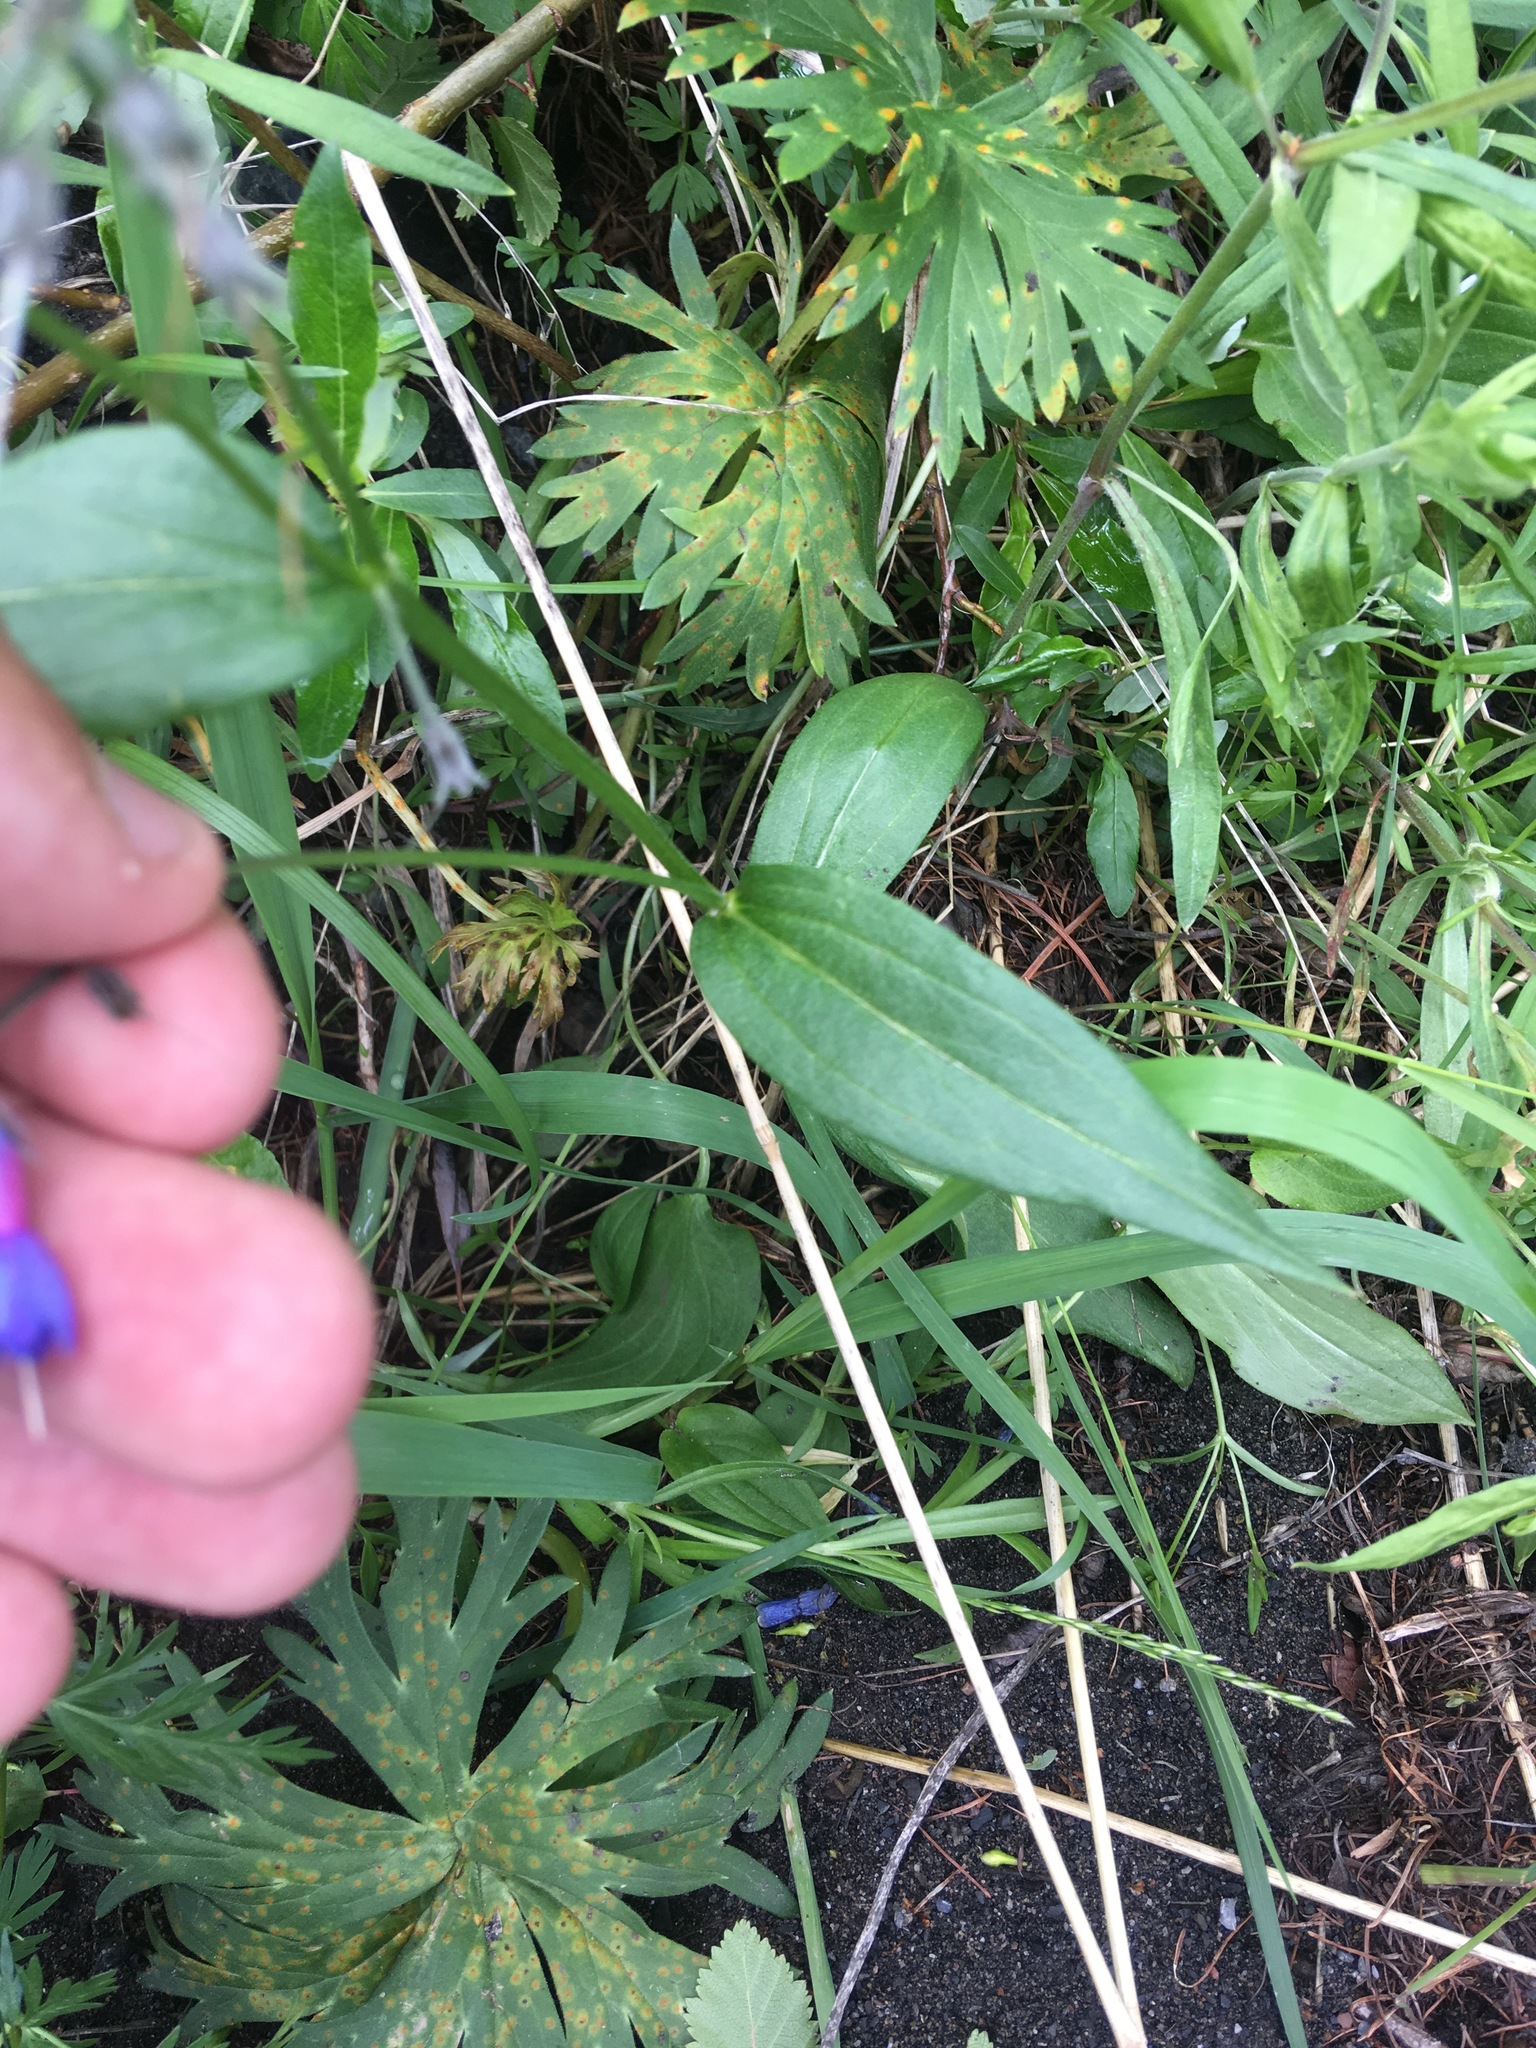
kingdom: Plantae
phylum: Tracheophyta
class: Magnoliopsida
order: Boraginales
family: Boraginaceae
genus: Mertensia
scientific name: Mertensia stylosa
